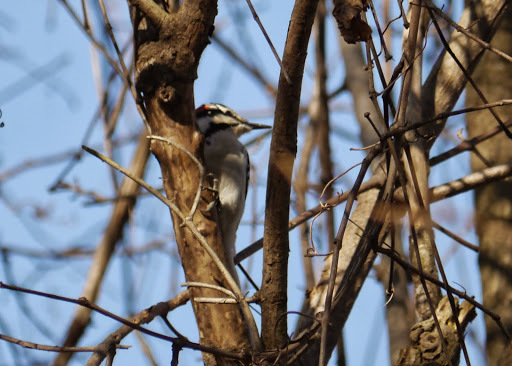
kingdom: Animalia
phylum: Chordata
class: Aves
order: Piciformes
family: Picidae
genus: Leuconotopicus
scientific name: Leuconotopicus villosus
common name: Hairy woodpecker
